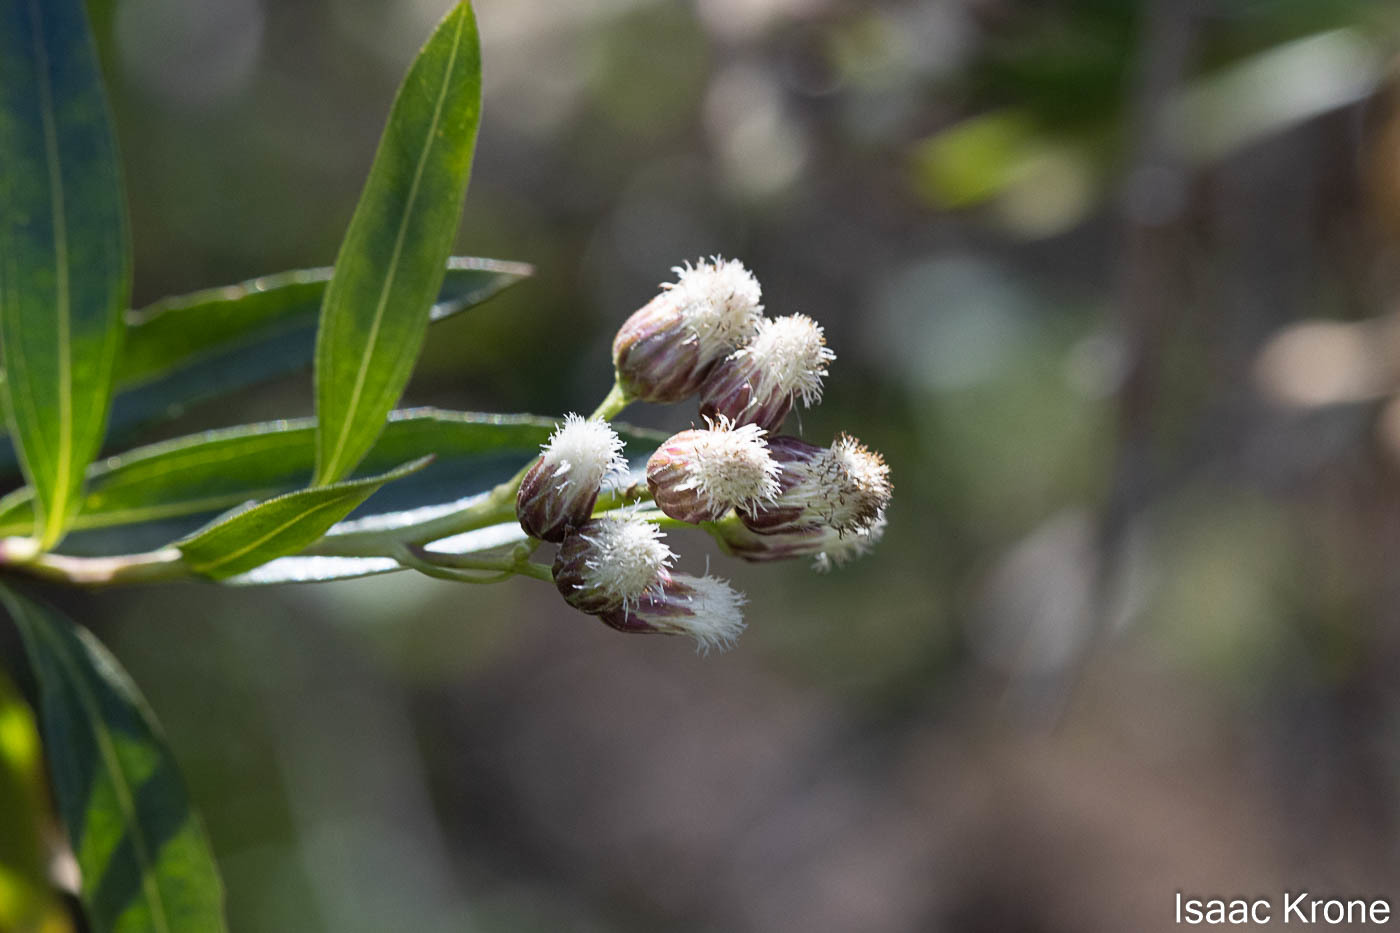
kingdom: Plantae
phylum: Tracheophyta
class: Magnoliopsida
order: Asterales
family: Asteraceae
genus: Baccharis
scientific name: Baccharis salicifolia
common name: Sticky baccharis
